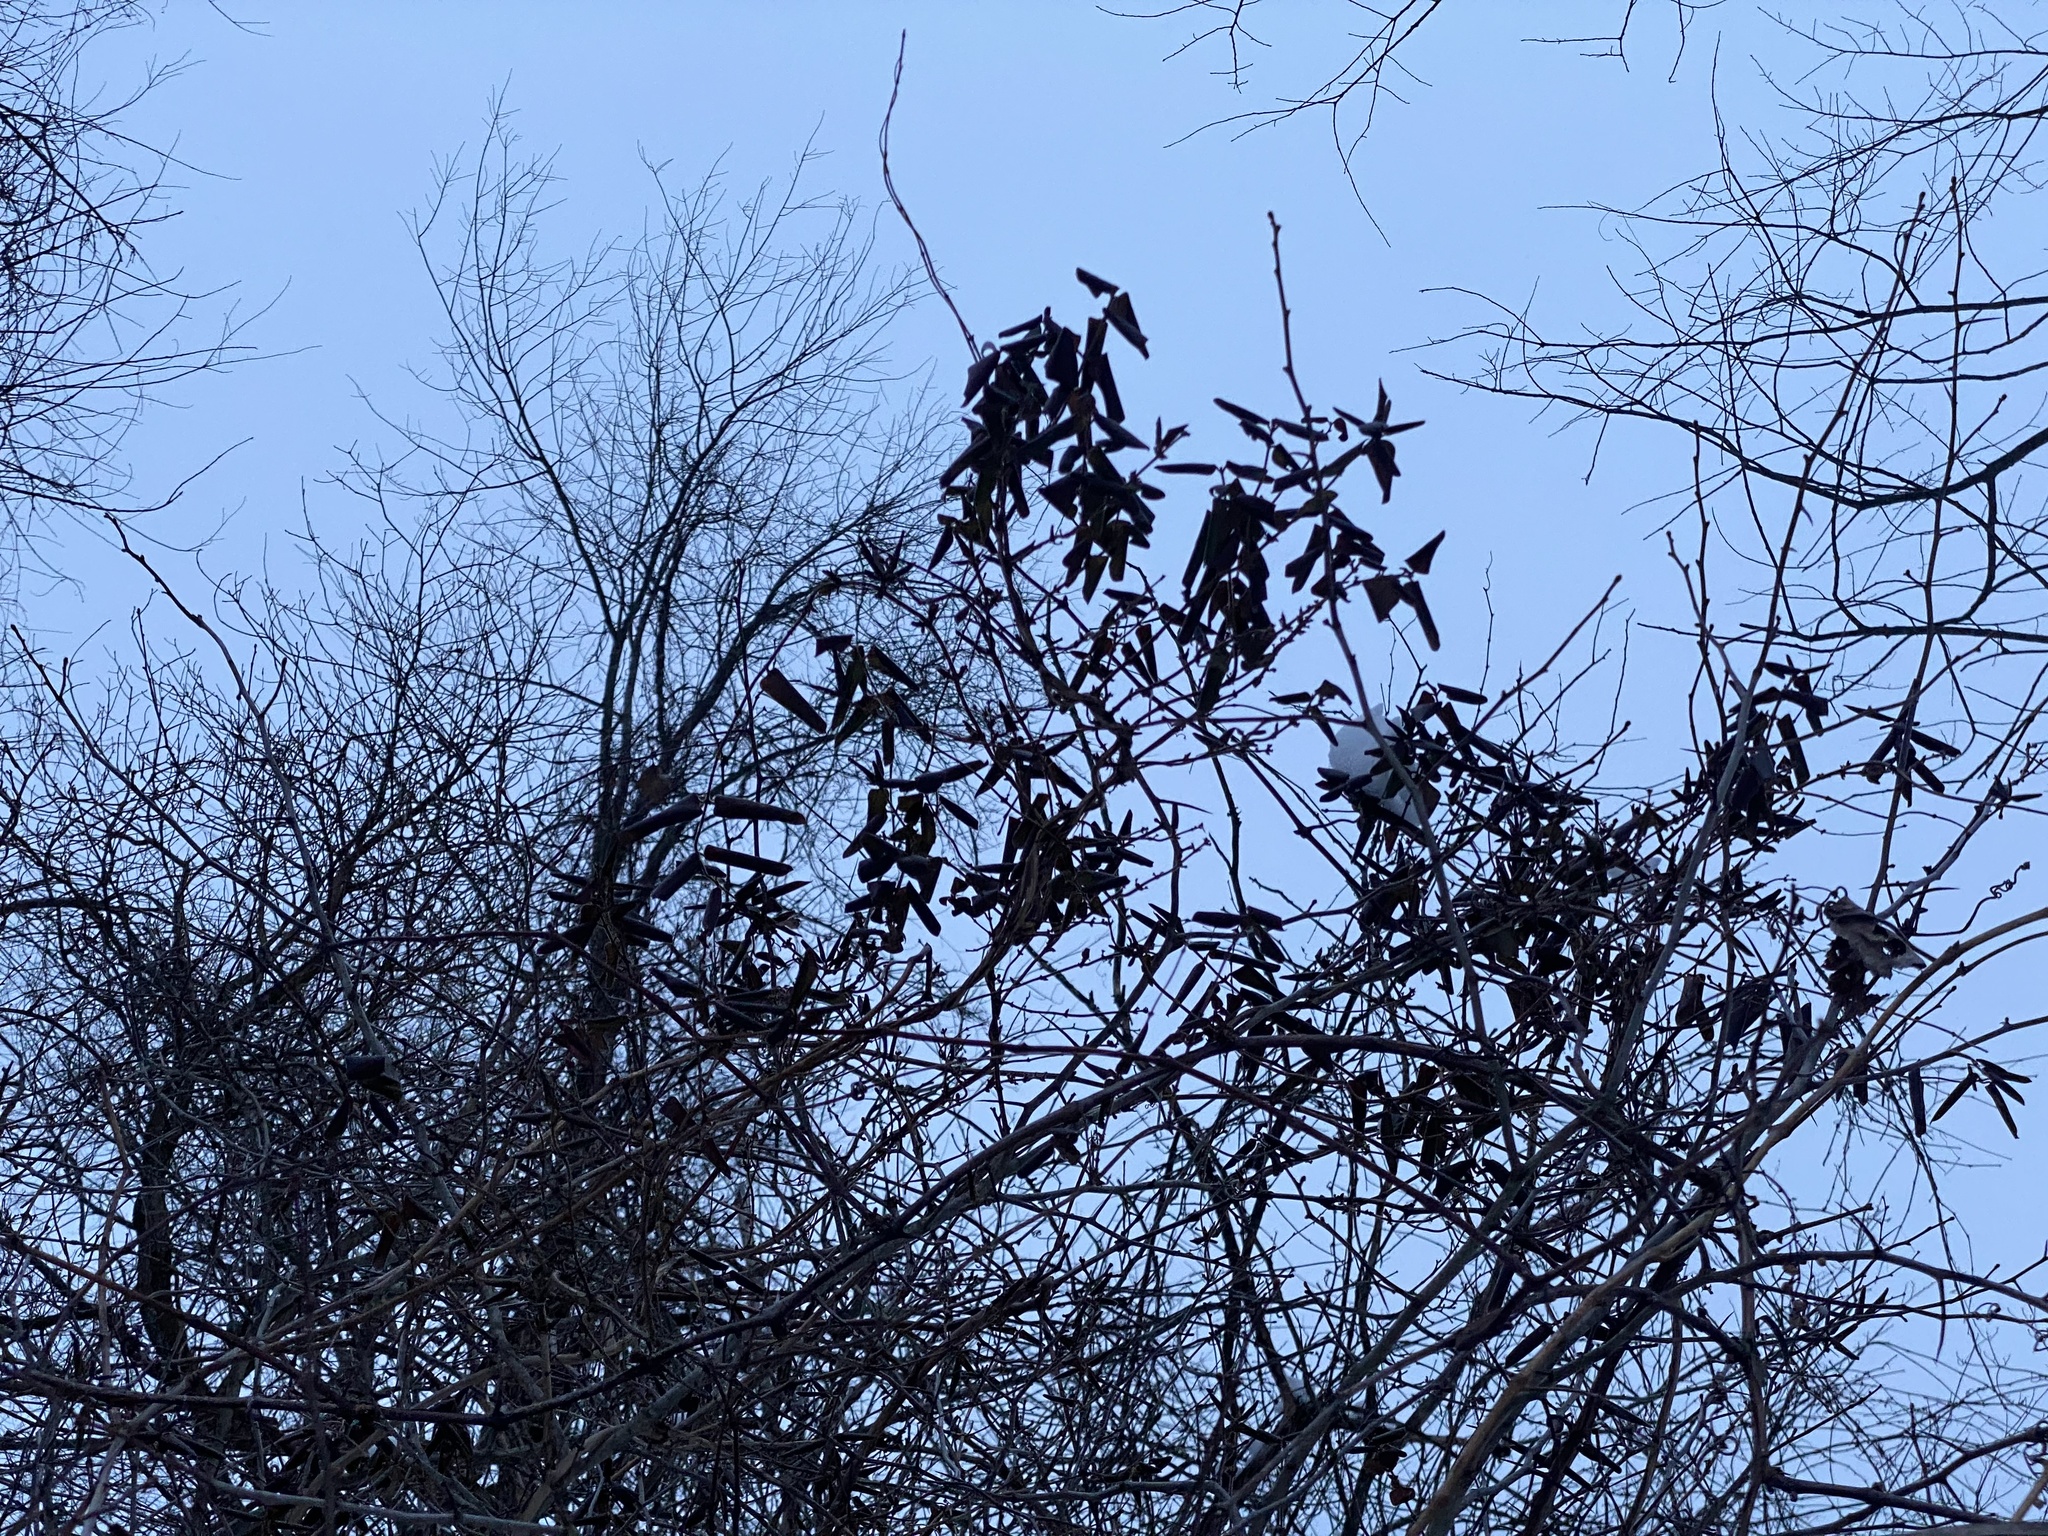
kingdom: Plantae
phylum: Tracheophyta
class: Magnoliopsida
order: Dipsacales
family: Caprifoliaceae
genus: Lonicera
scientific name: Lonicera japonica
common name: Japanese honeysuckle
